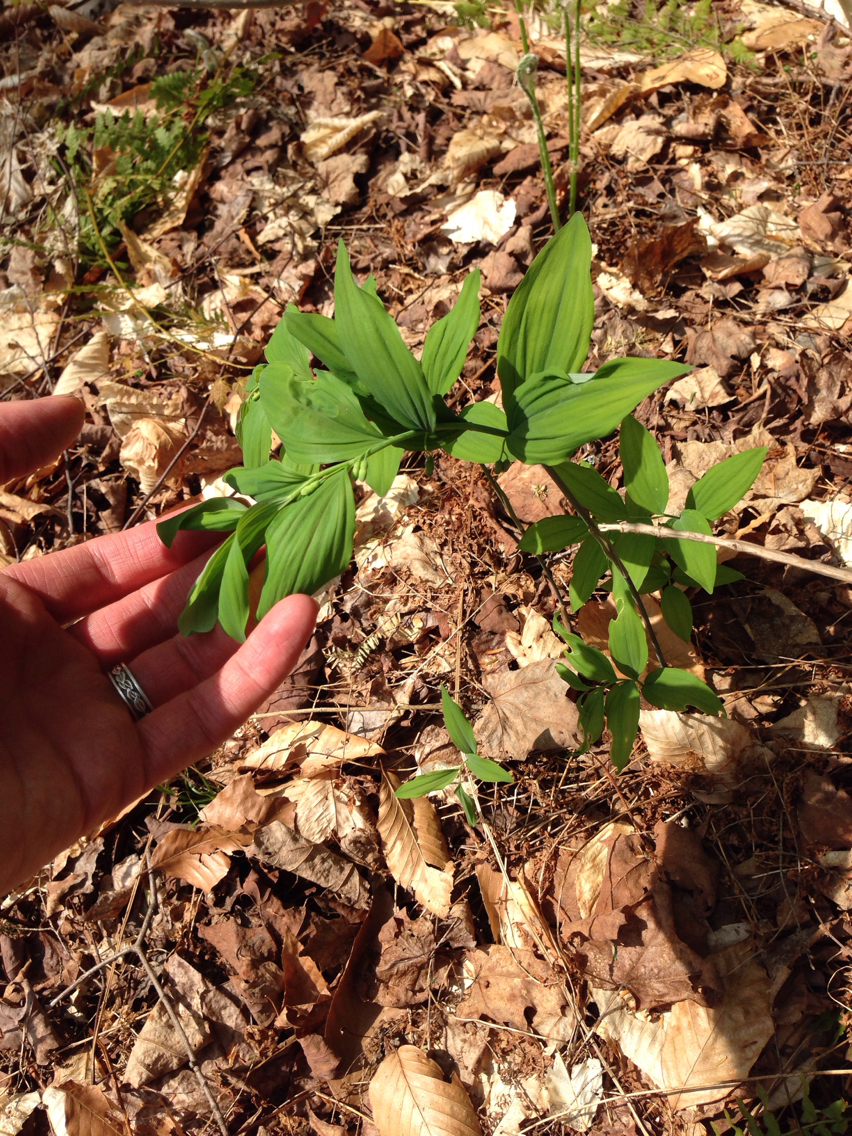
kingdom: Plantae
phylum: Tracheophyta
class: Liliopsida
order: Asparagales
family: Asparagaceae
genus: Polygonatum
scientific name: Polygonatum pubescens
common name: Downy solomon's seal
